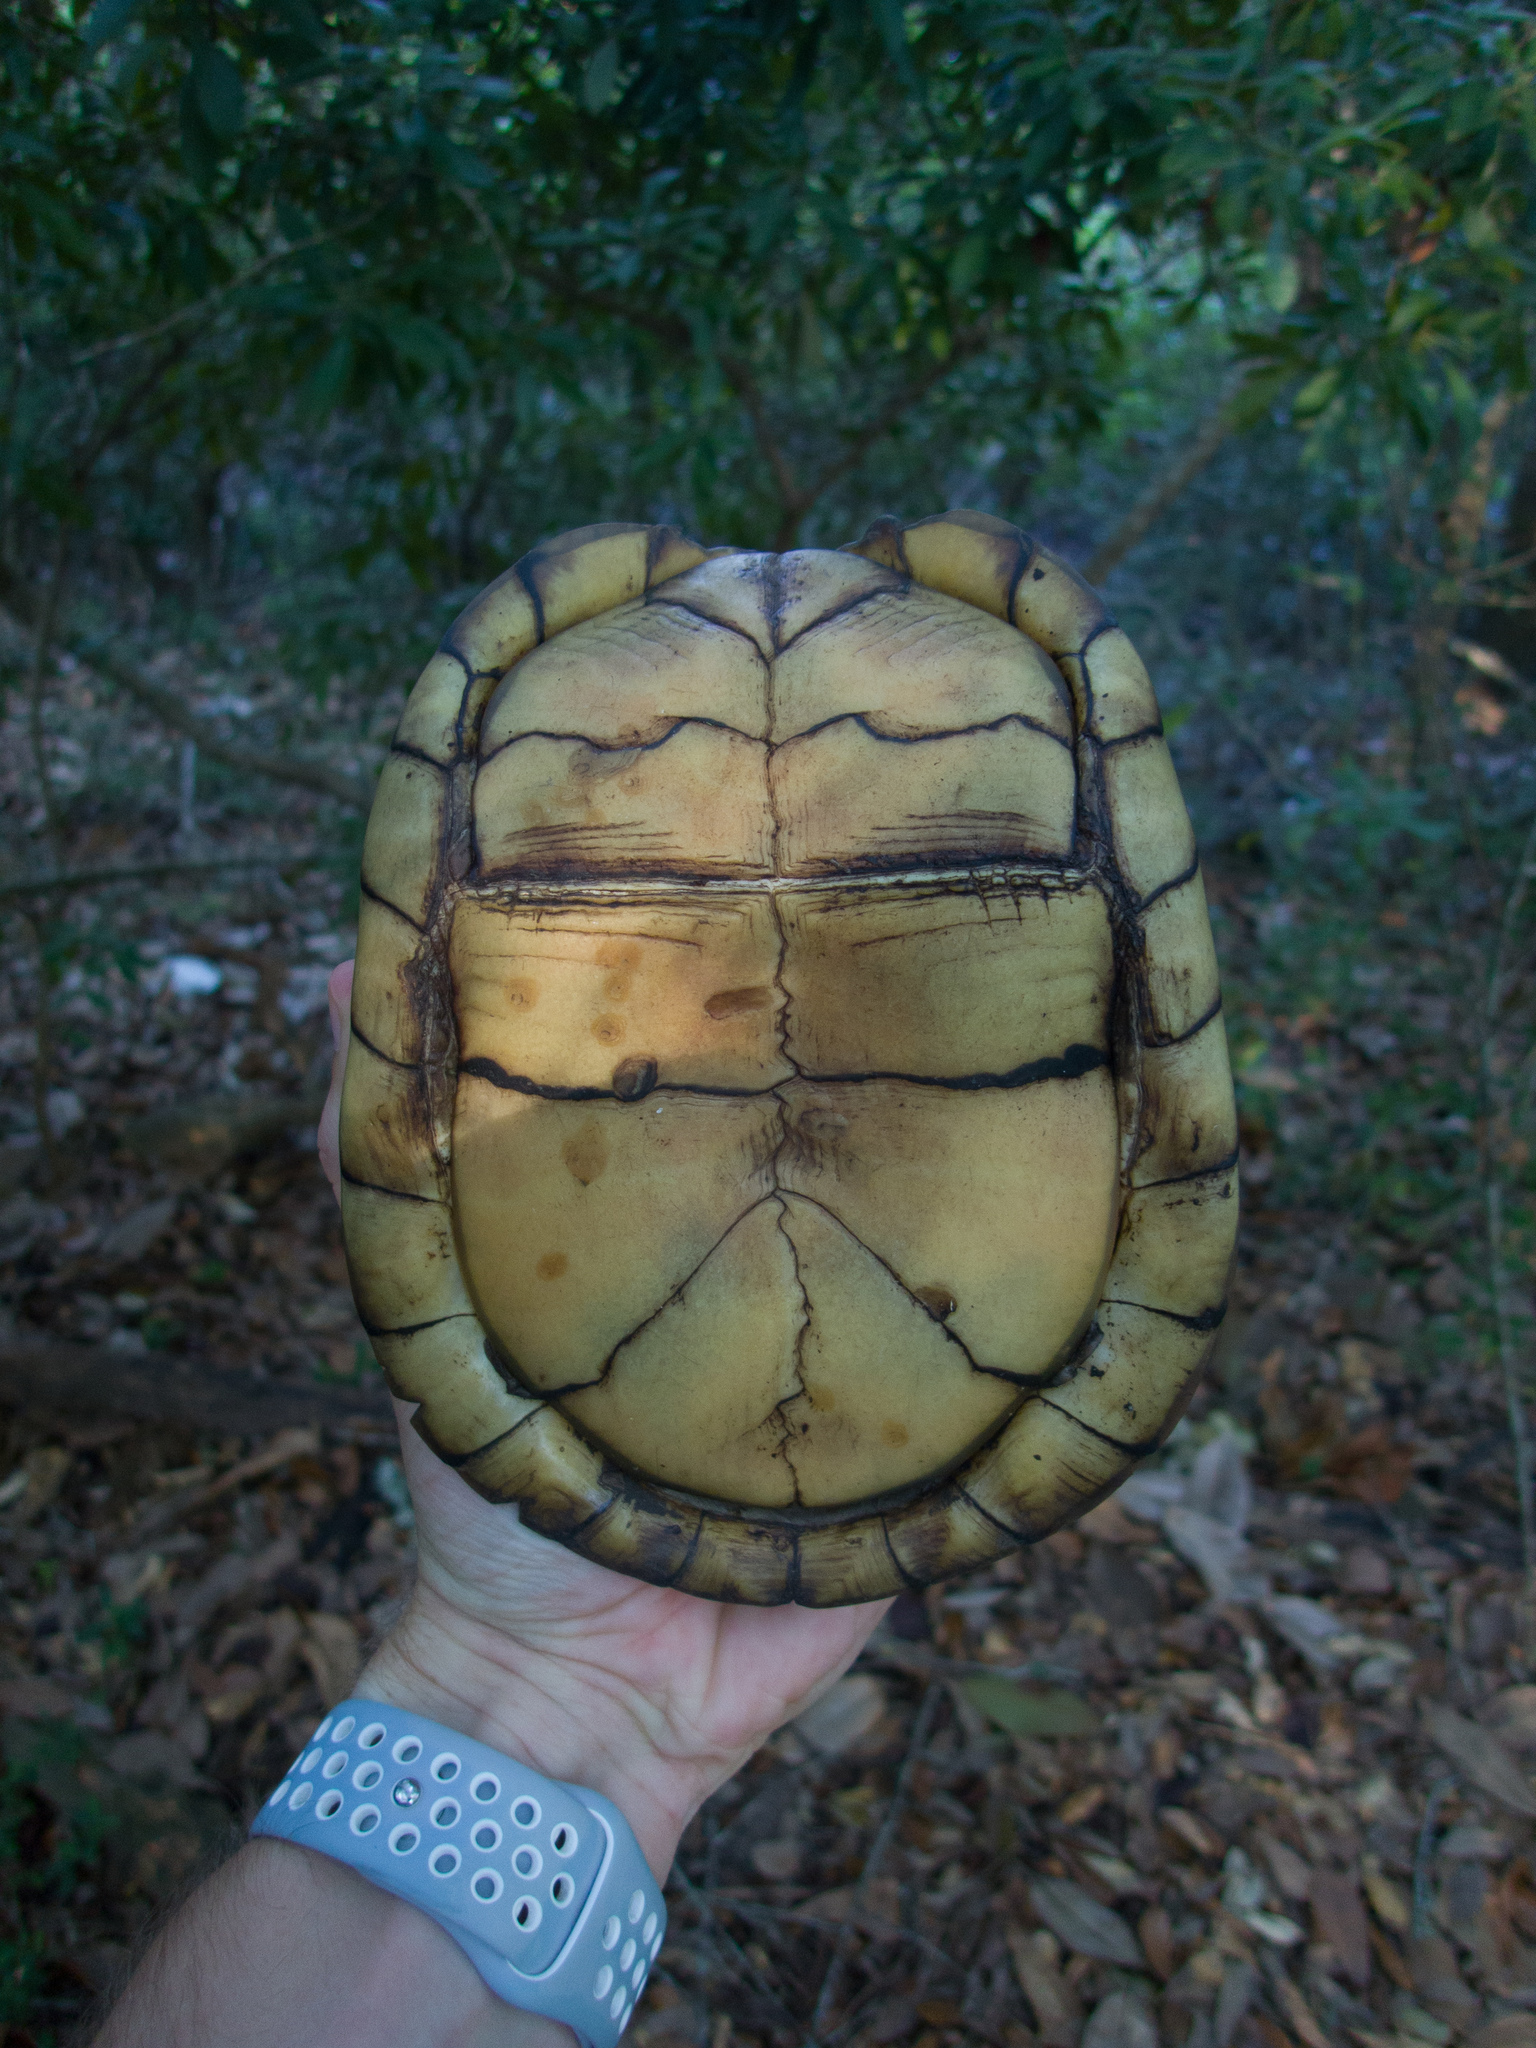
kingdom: Animalia
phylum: Chordata
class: Testudines
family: Emydidae
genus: Terrapene
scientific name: Terrapene carolina
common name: Common box turtle
